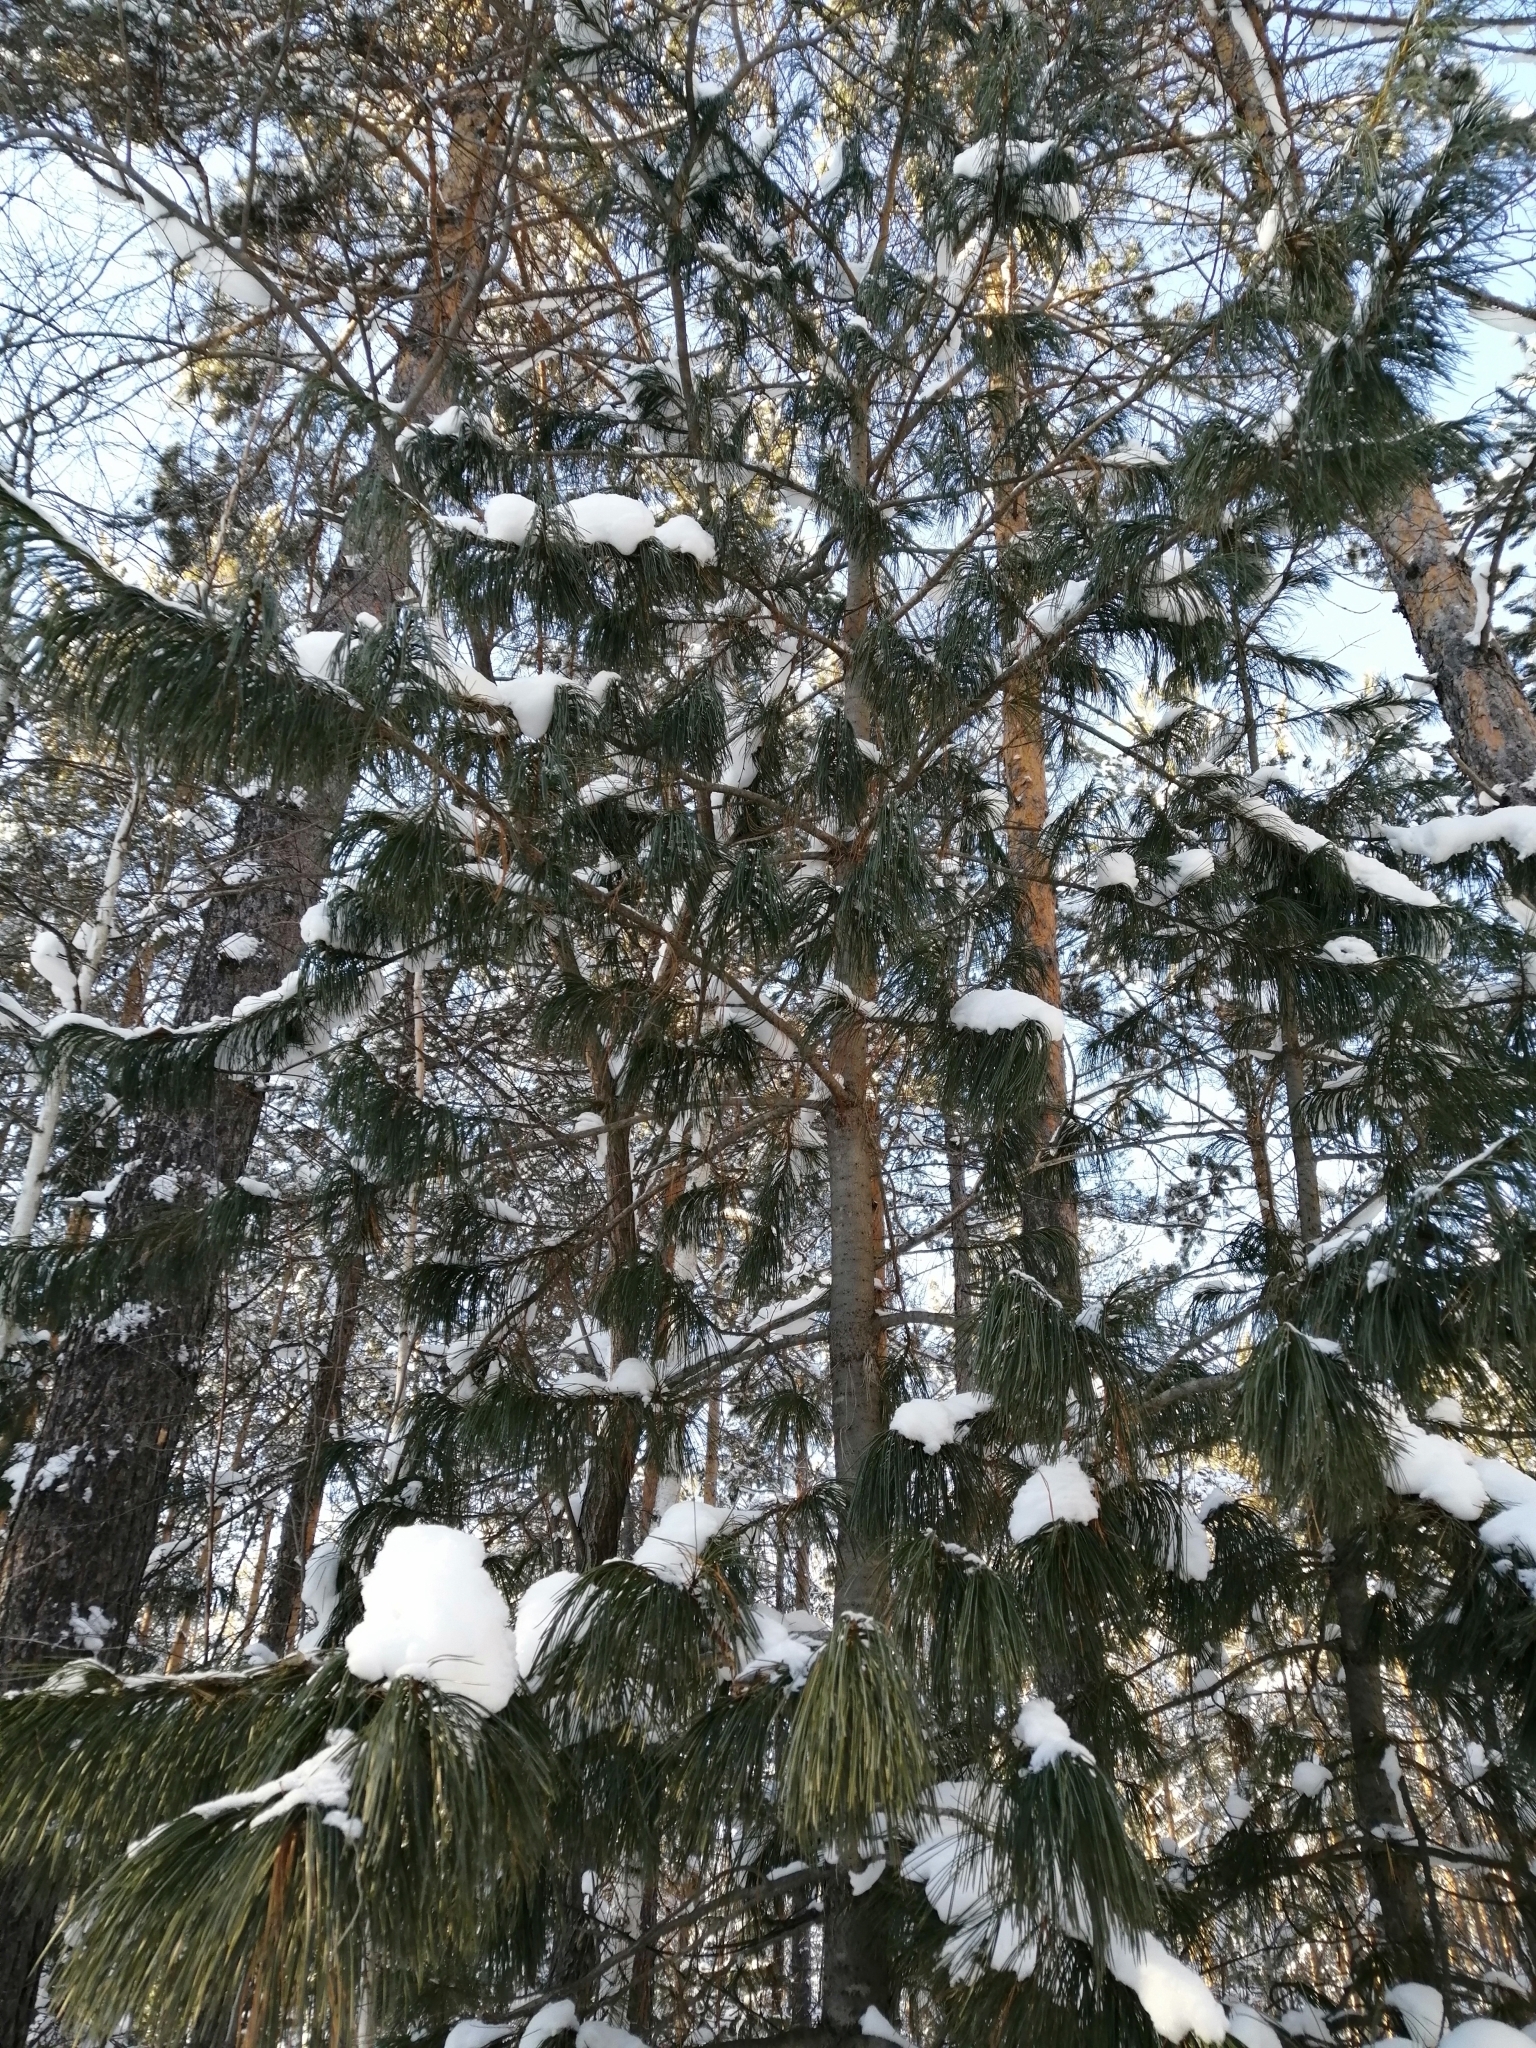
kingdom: Plantae
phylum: Tracheophyta
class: Pinopsida
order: Pinales
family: Pinaceae
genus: Pinus
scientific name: Pinus sibirica
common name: Siberian pine
